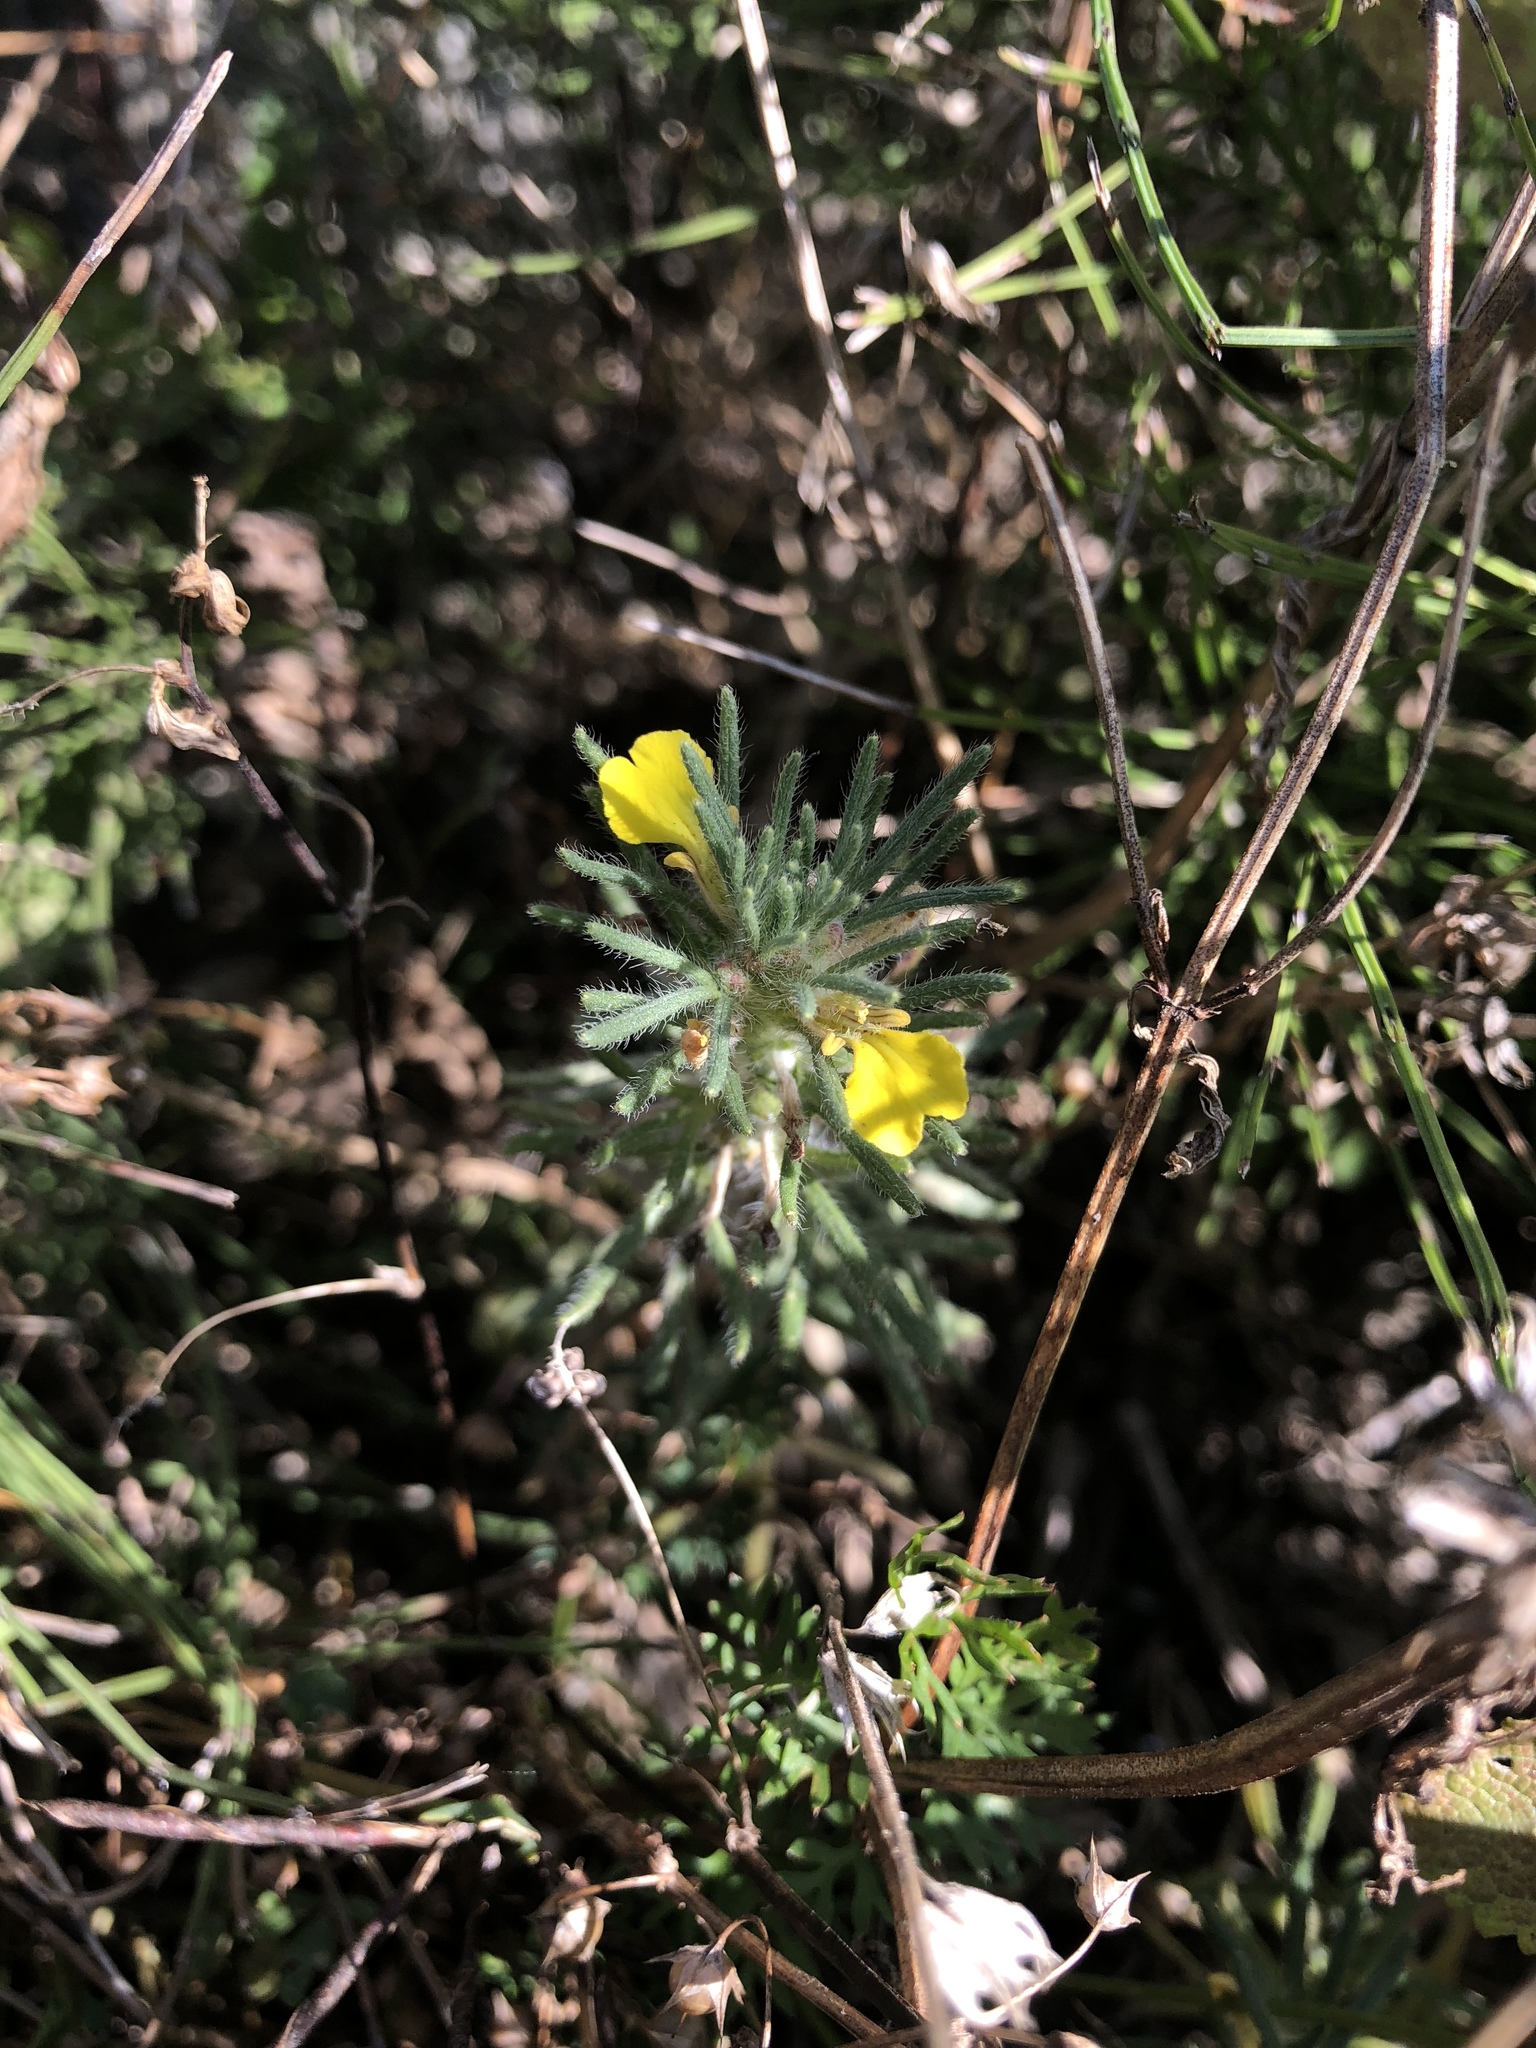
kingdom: Plantae
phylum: Tracheophyta
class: Magnoliopsida
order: Lamiales
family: Lamiaceae
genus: Ajuga
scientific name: Ajuga chamaepitys
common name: Ground-pine
